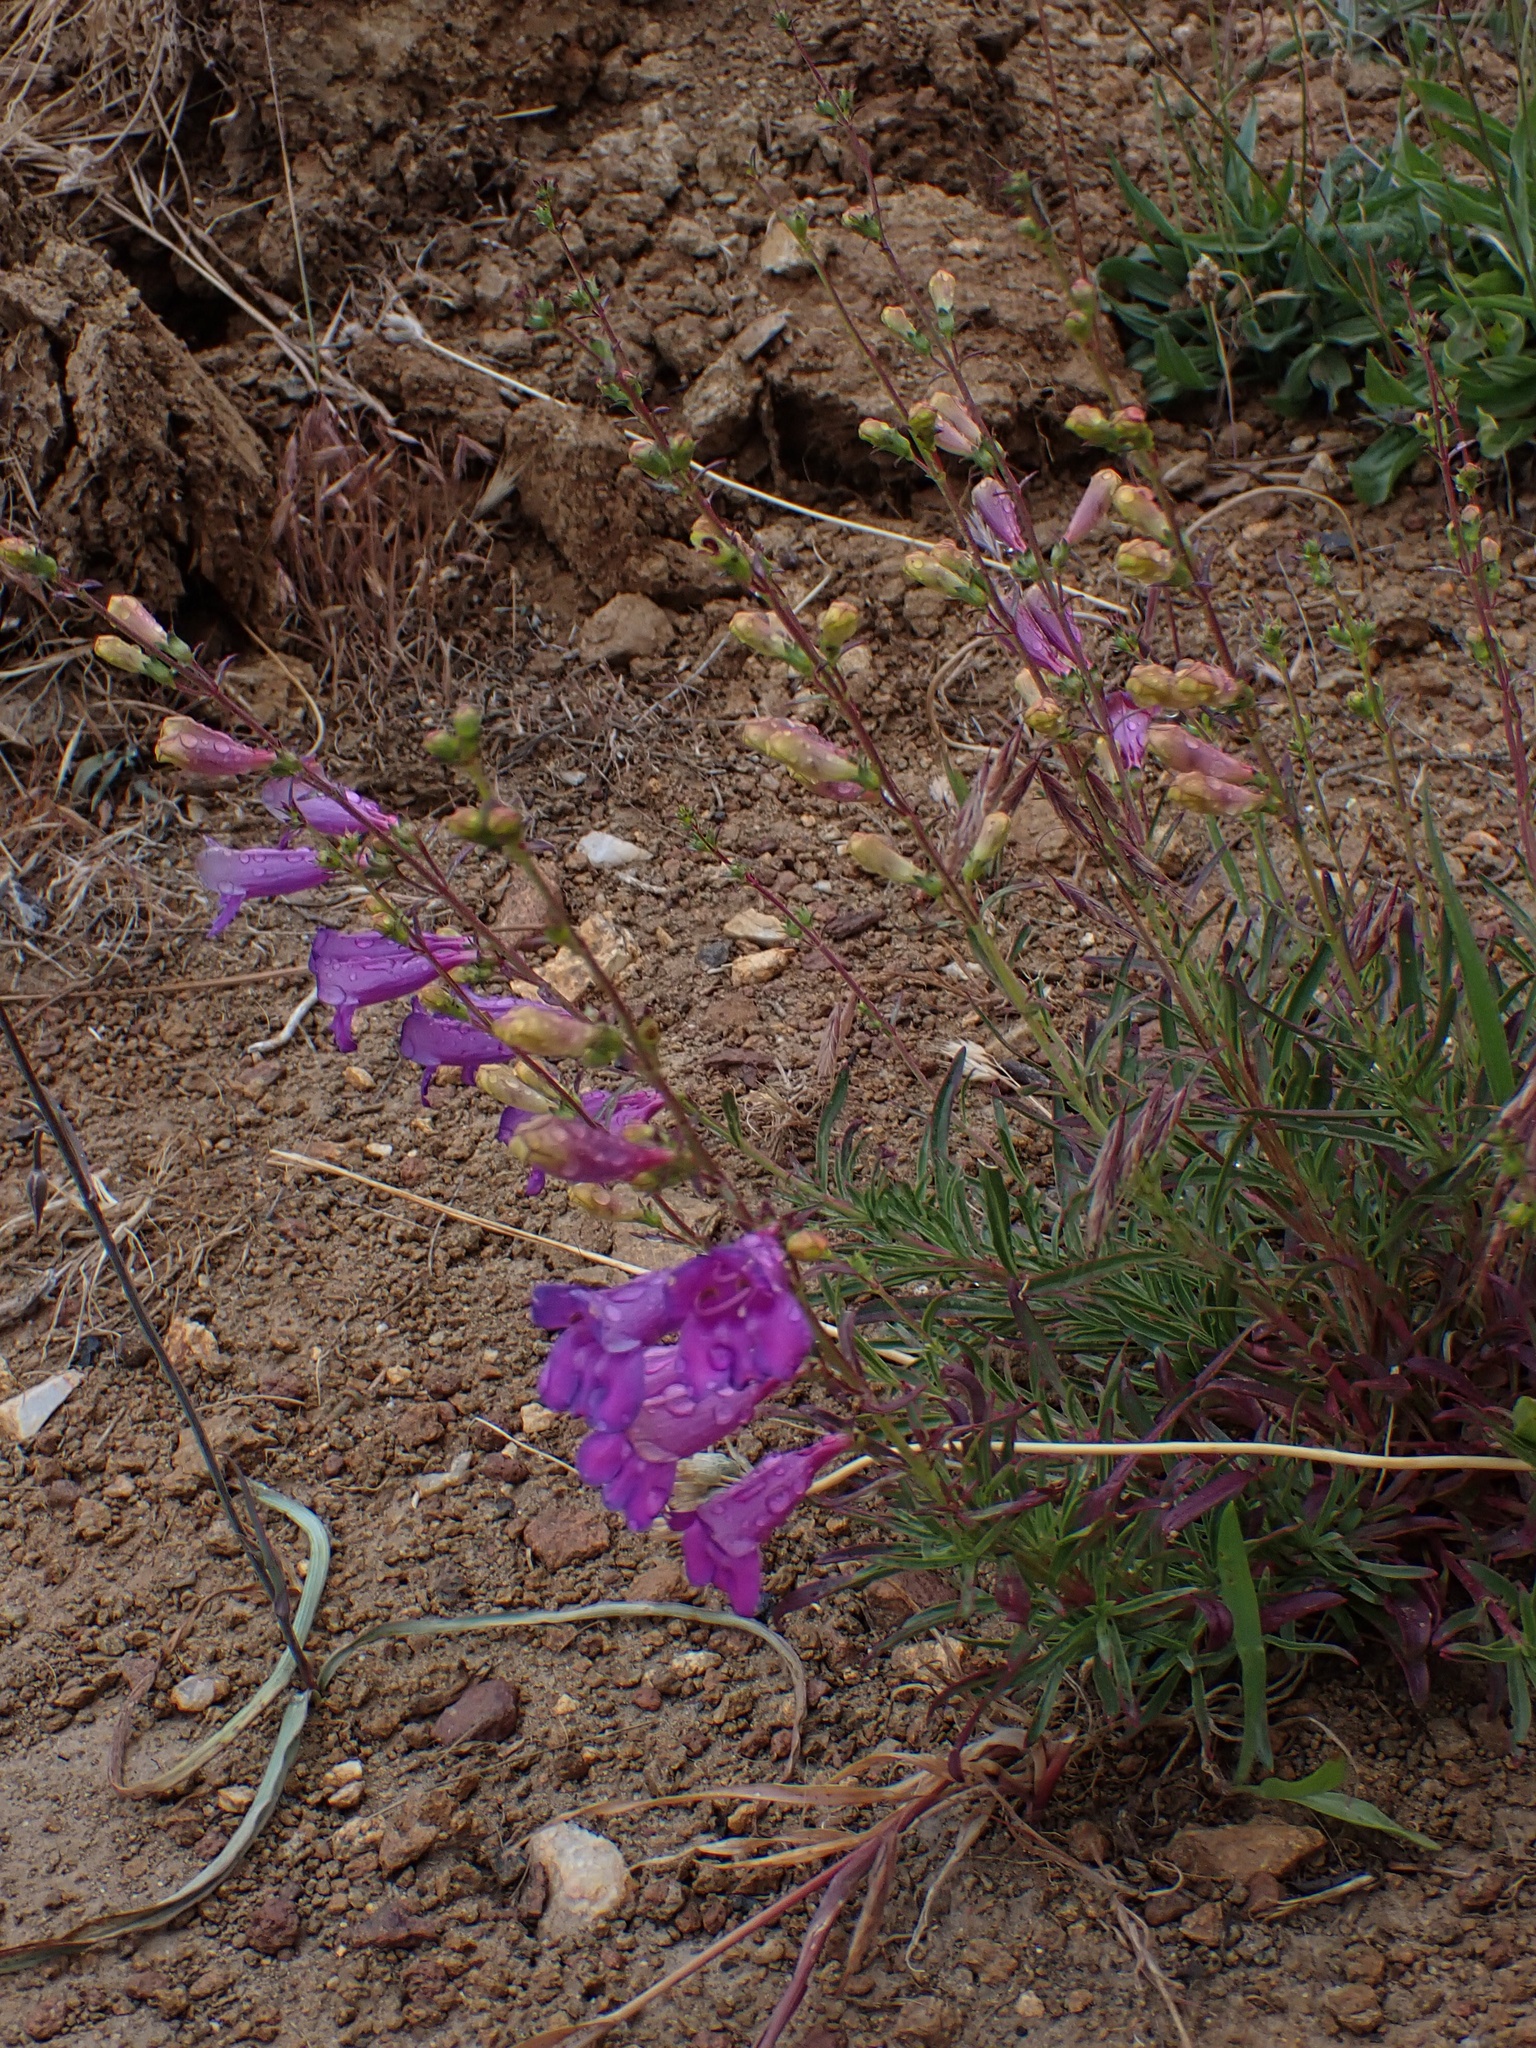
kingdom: Plantae
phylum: Tracheophyta
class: Magnoliopsida
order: Lamiales
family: Plantaginaceae
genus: Penstemon
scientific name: Penstemon heterophyllus
